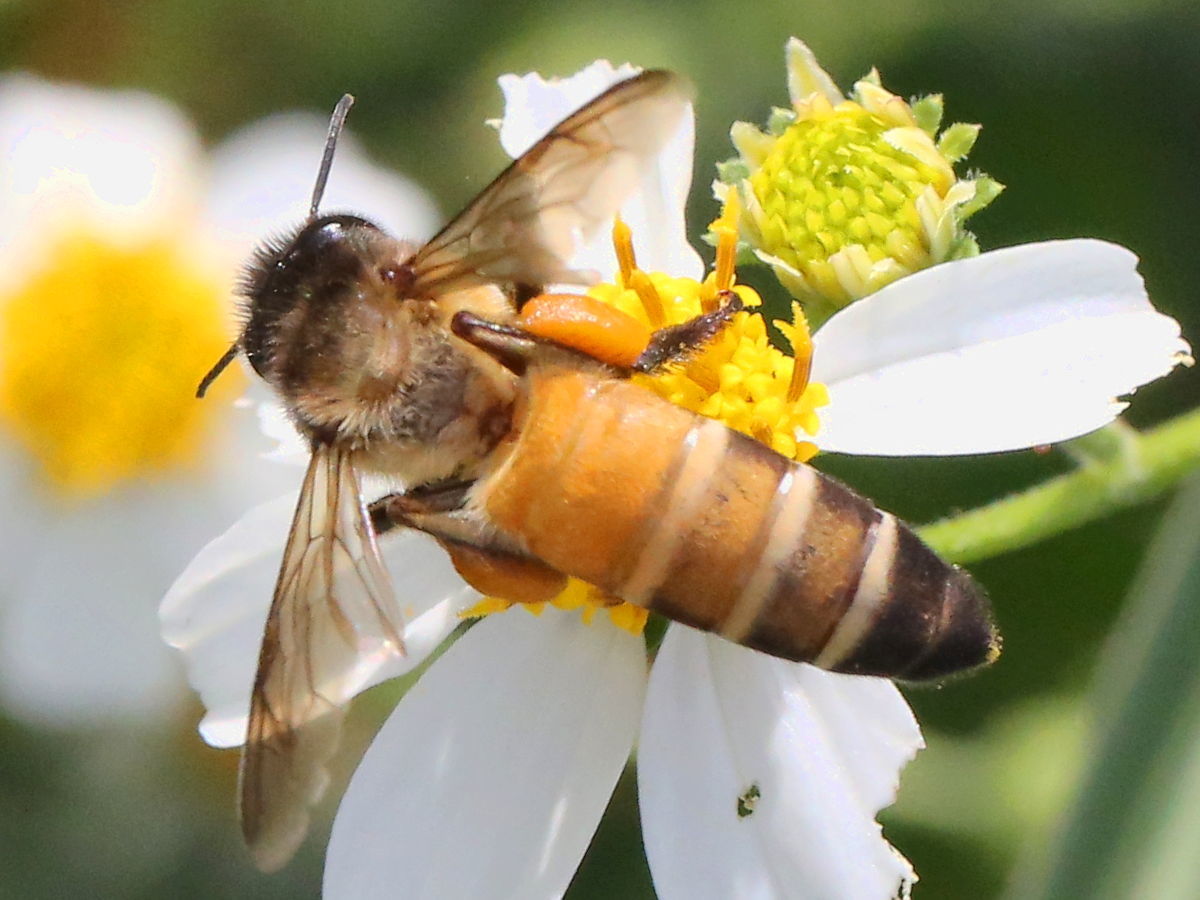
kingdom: Animalia
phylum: Arthropoda
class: Insecta
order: Hymenoptera
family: Apidae
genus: Apis
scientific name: Apis dorsata
